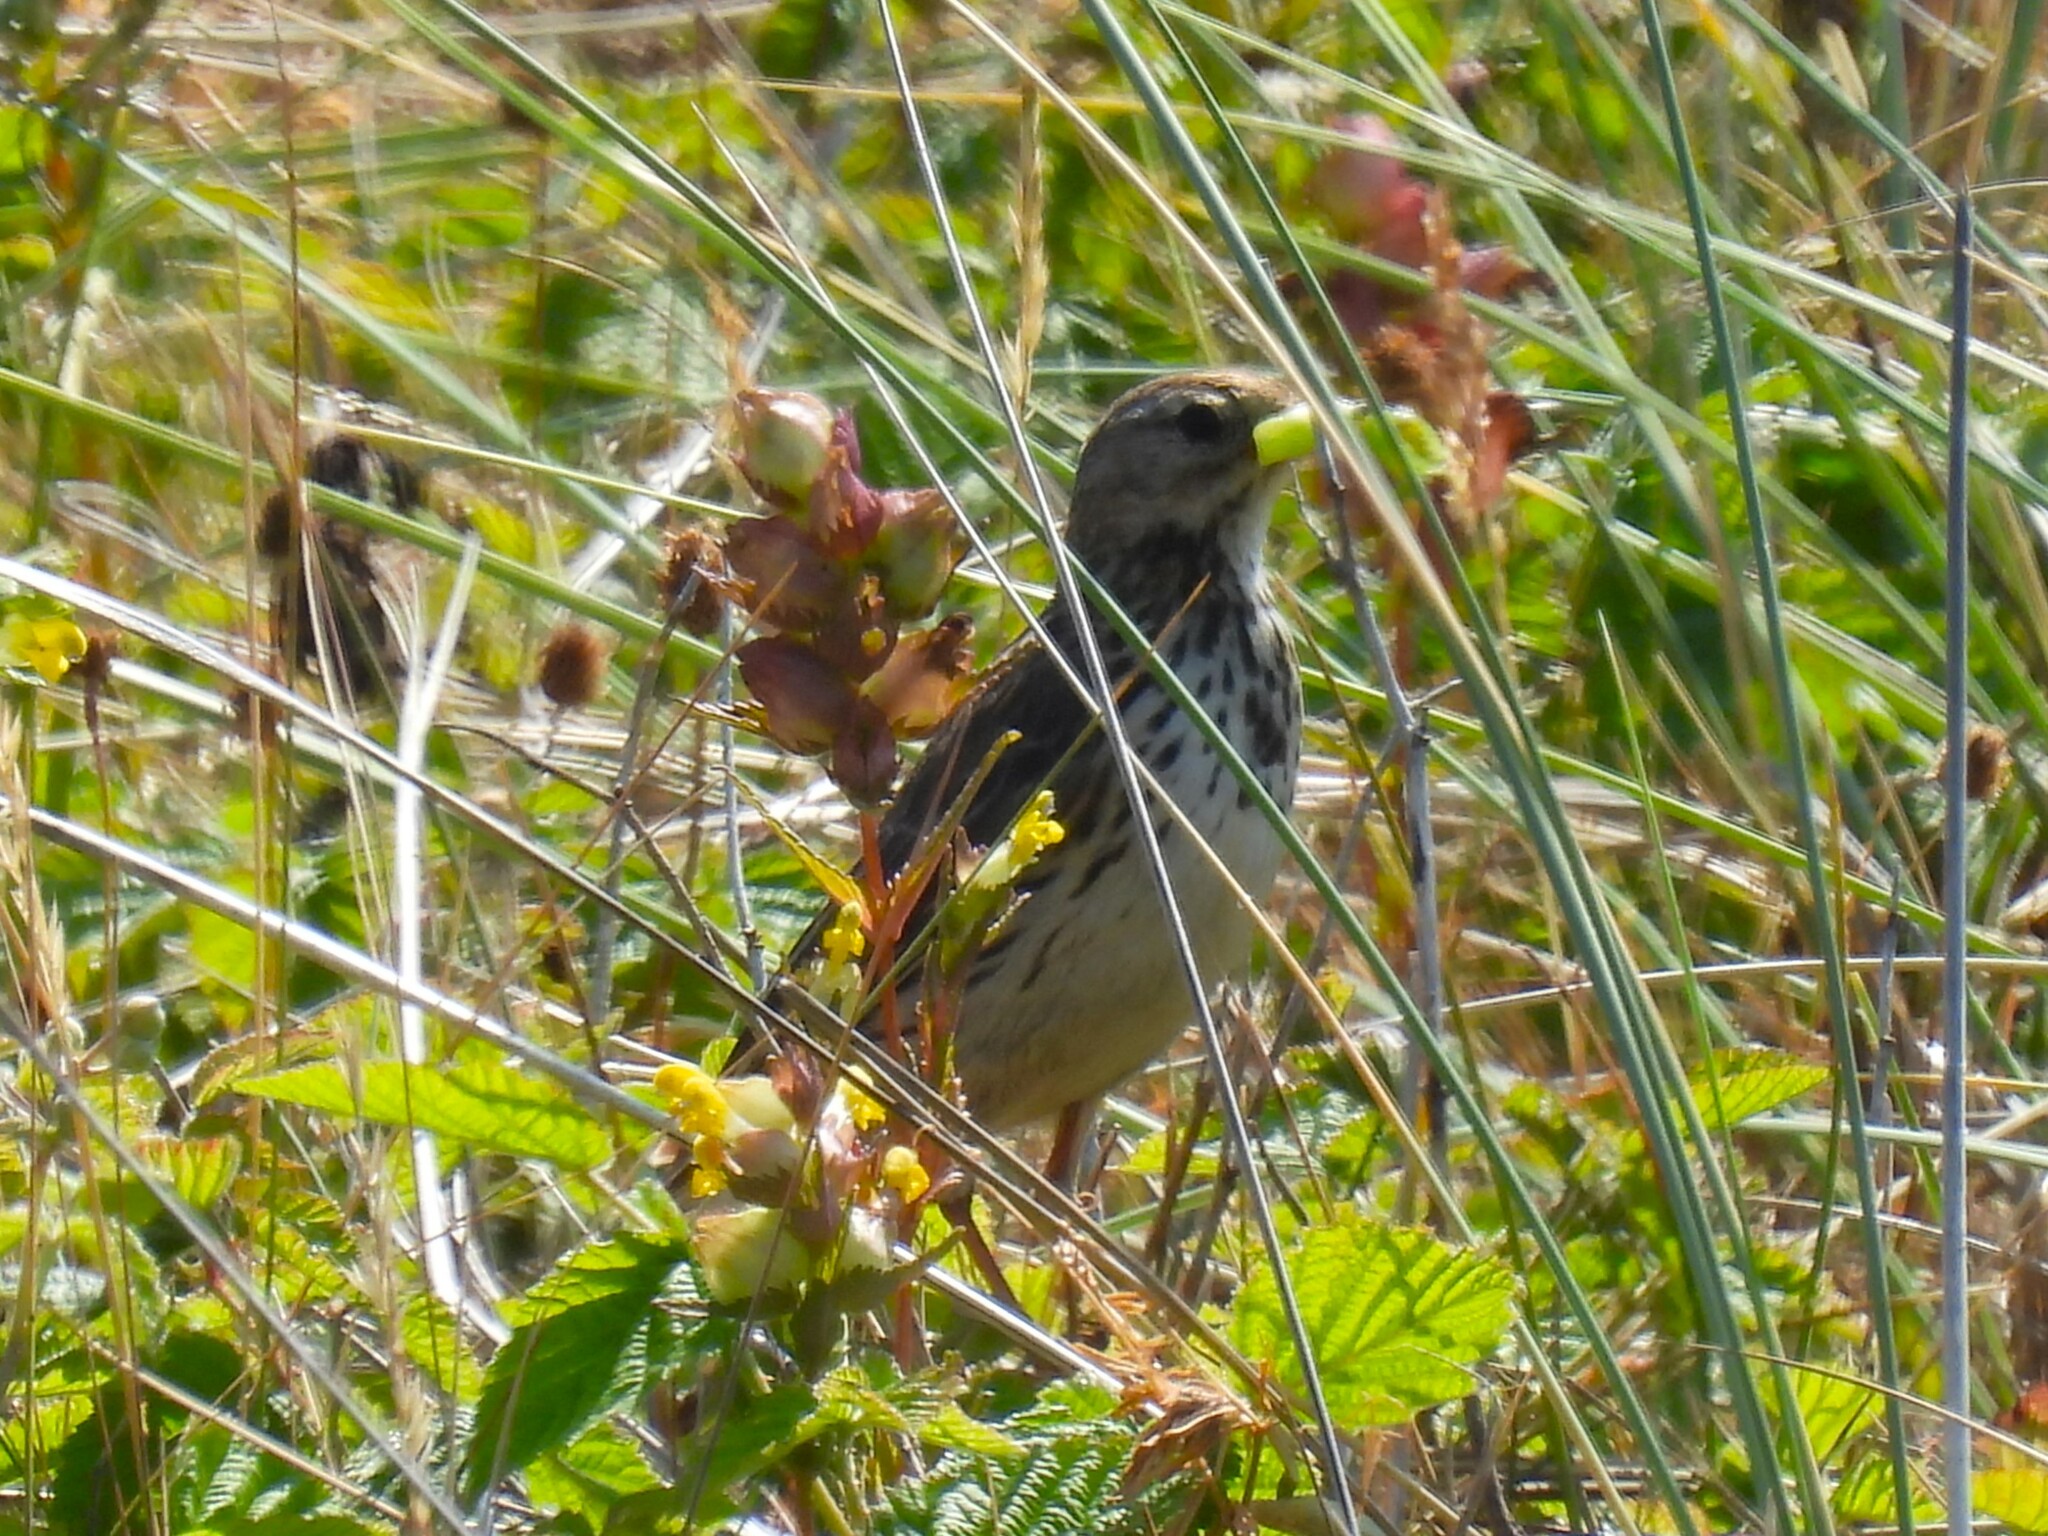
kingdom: Animalia
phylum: Chordata
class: Aves
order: Passeriformes
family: Motacillidae
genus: Anthus
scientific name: Anthus pratensis
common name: Meadow pipit
